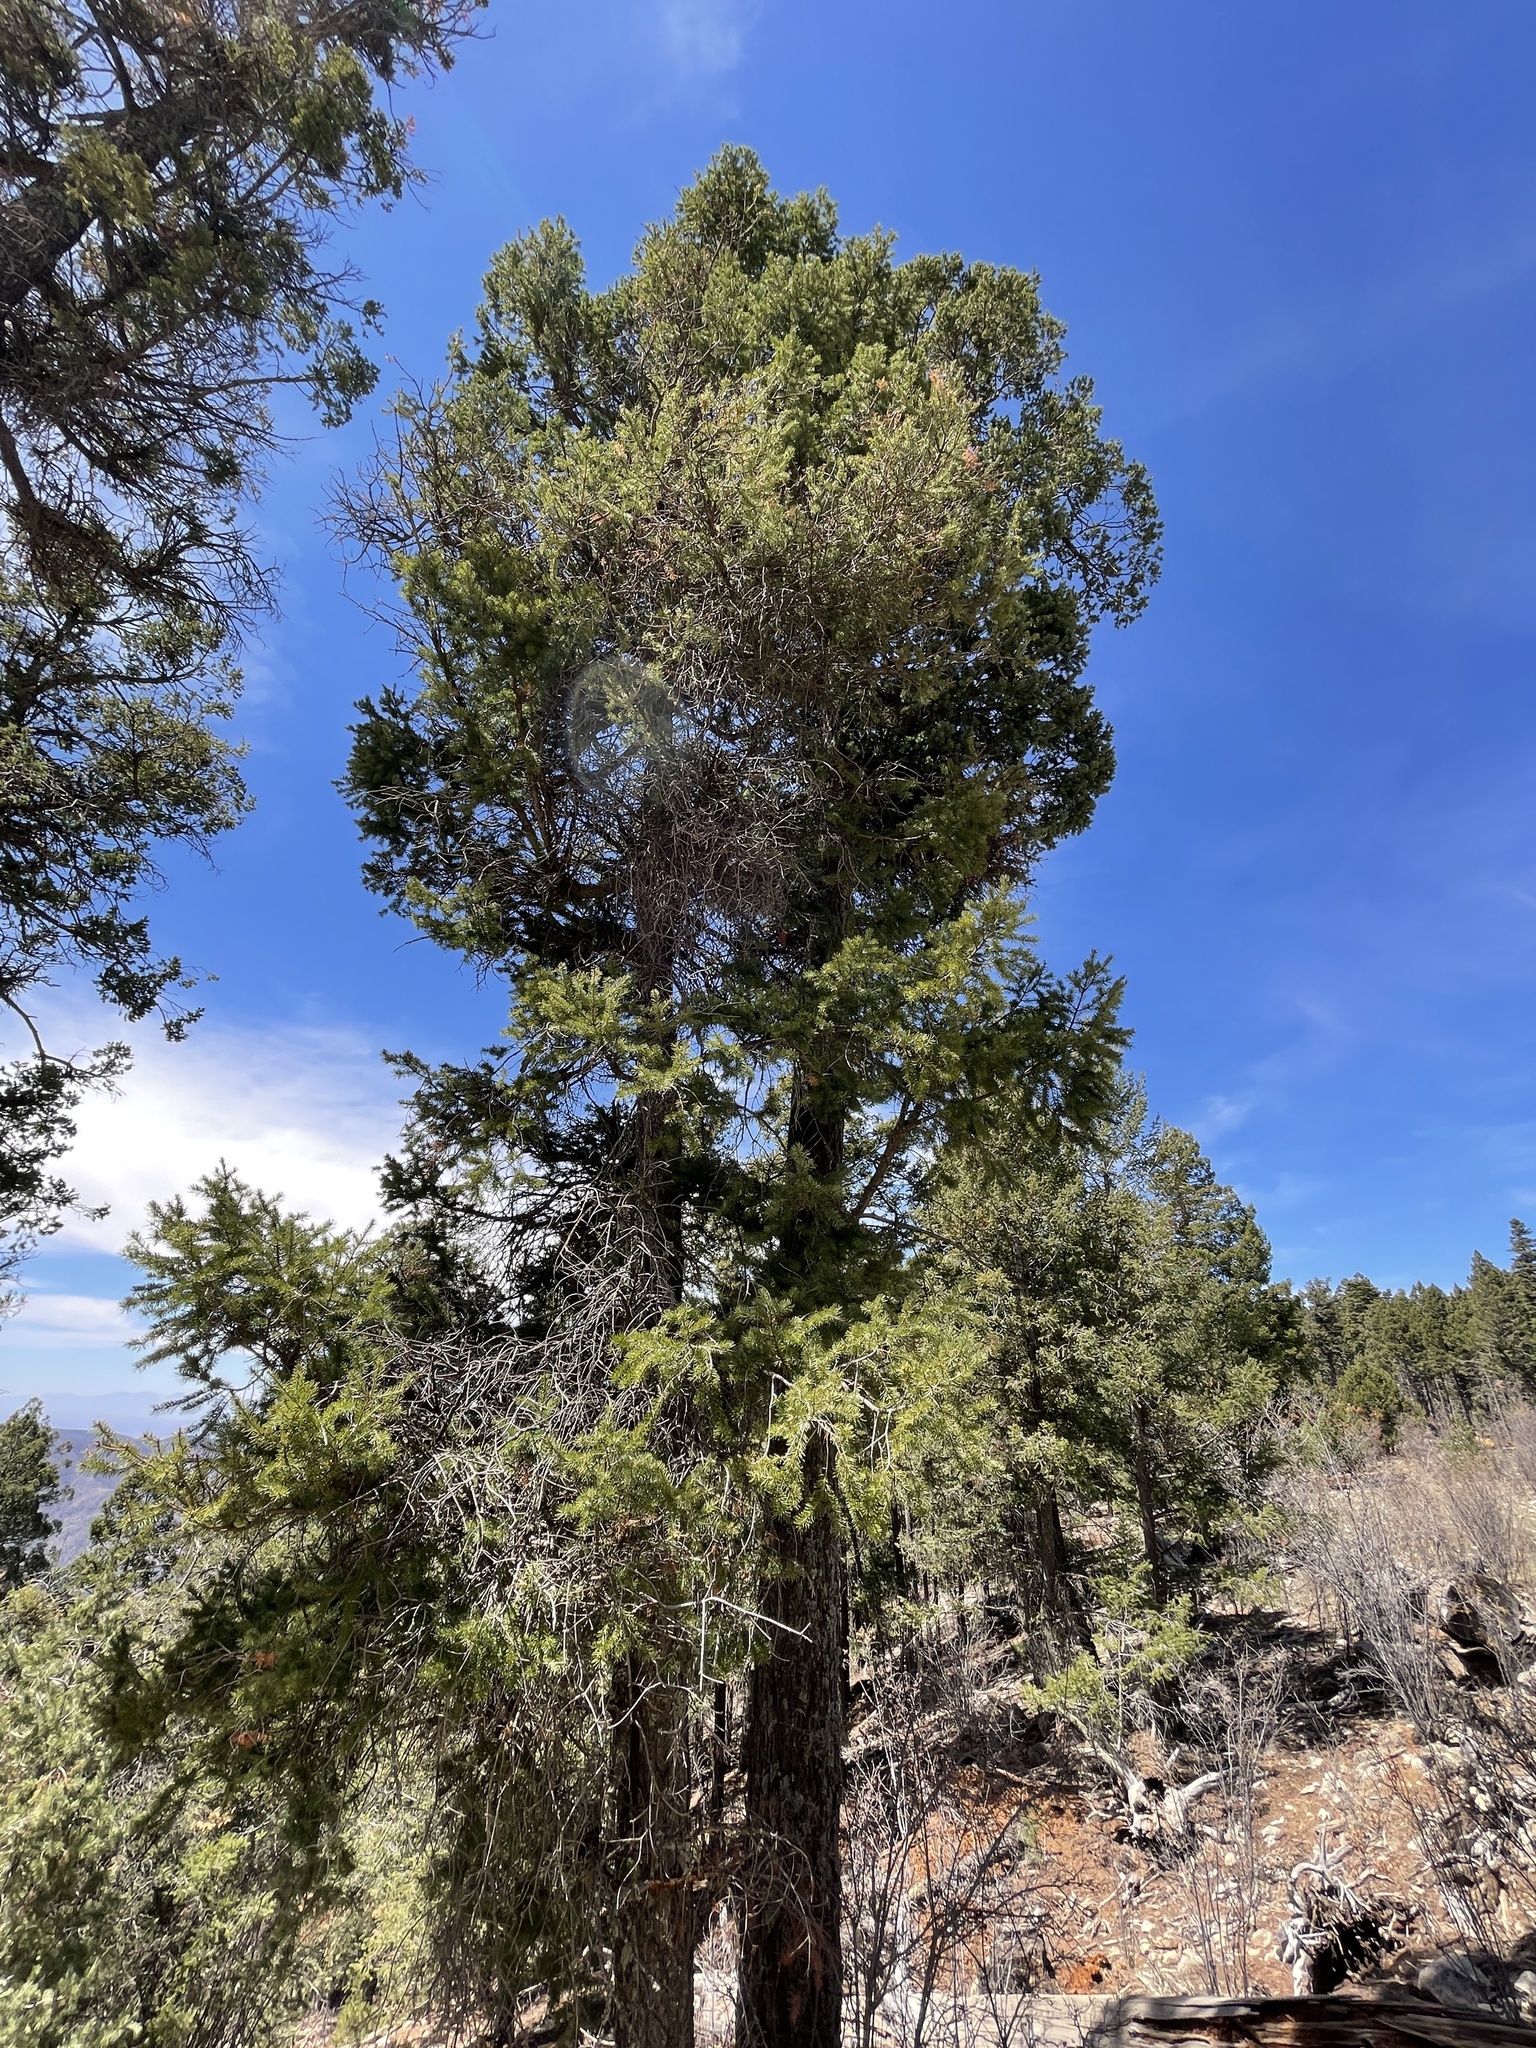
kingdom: Plantae
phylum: Tracheophyta
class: Pinopsida
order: Pinales
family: Pinaceae
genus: Pseudotsuga
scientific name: Pseudotsuga menziesii
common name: Douglas fir
